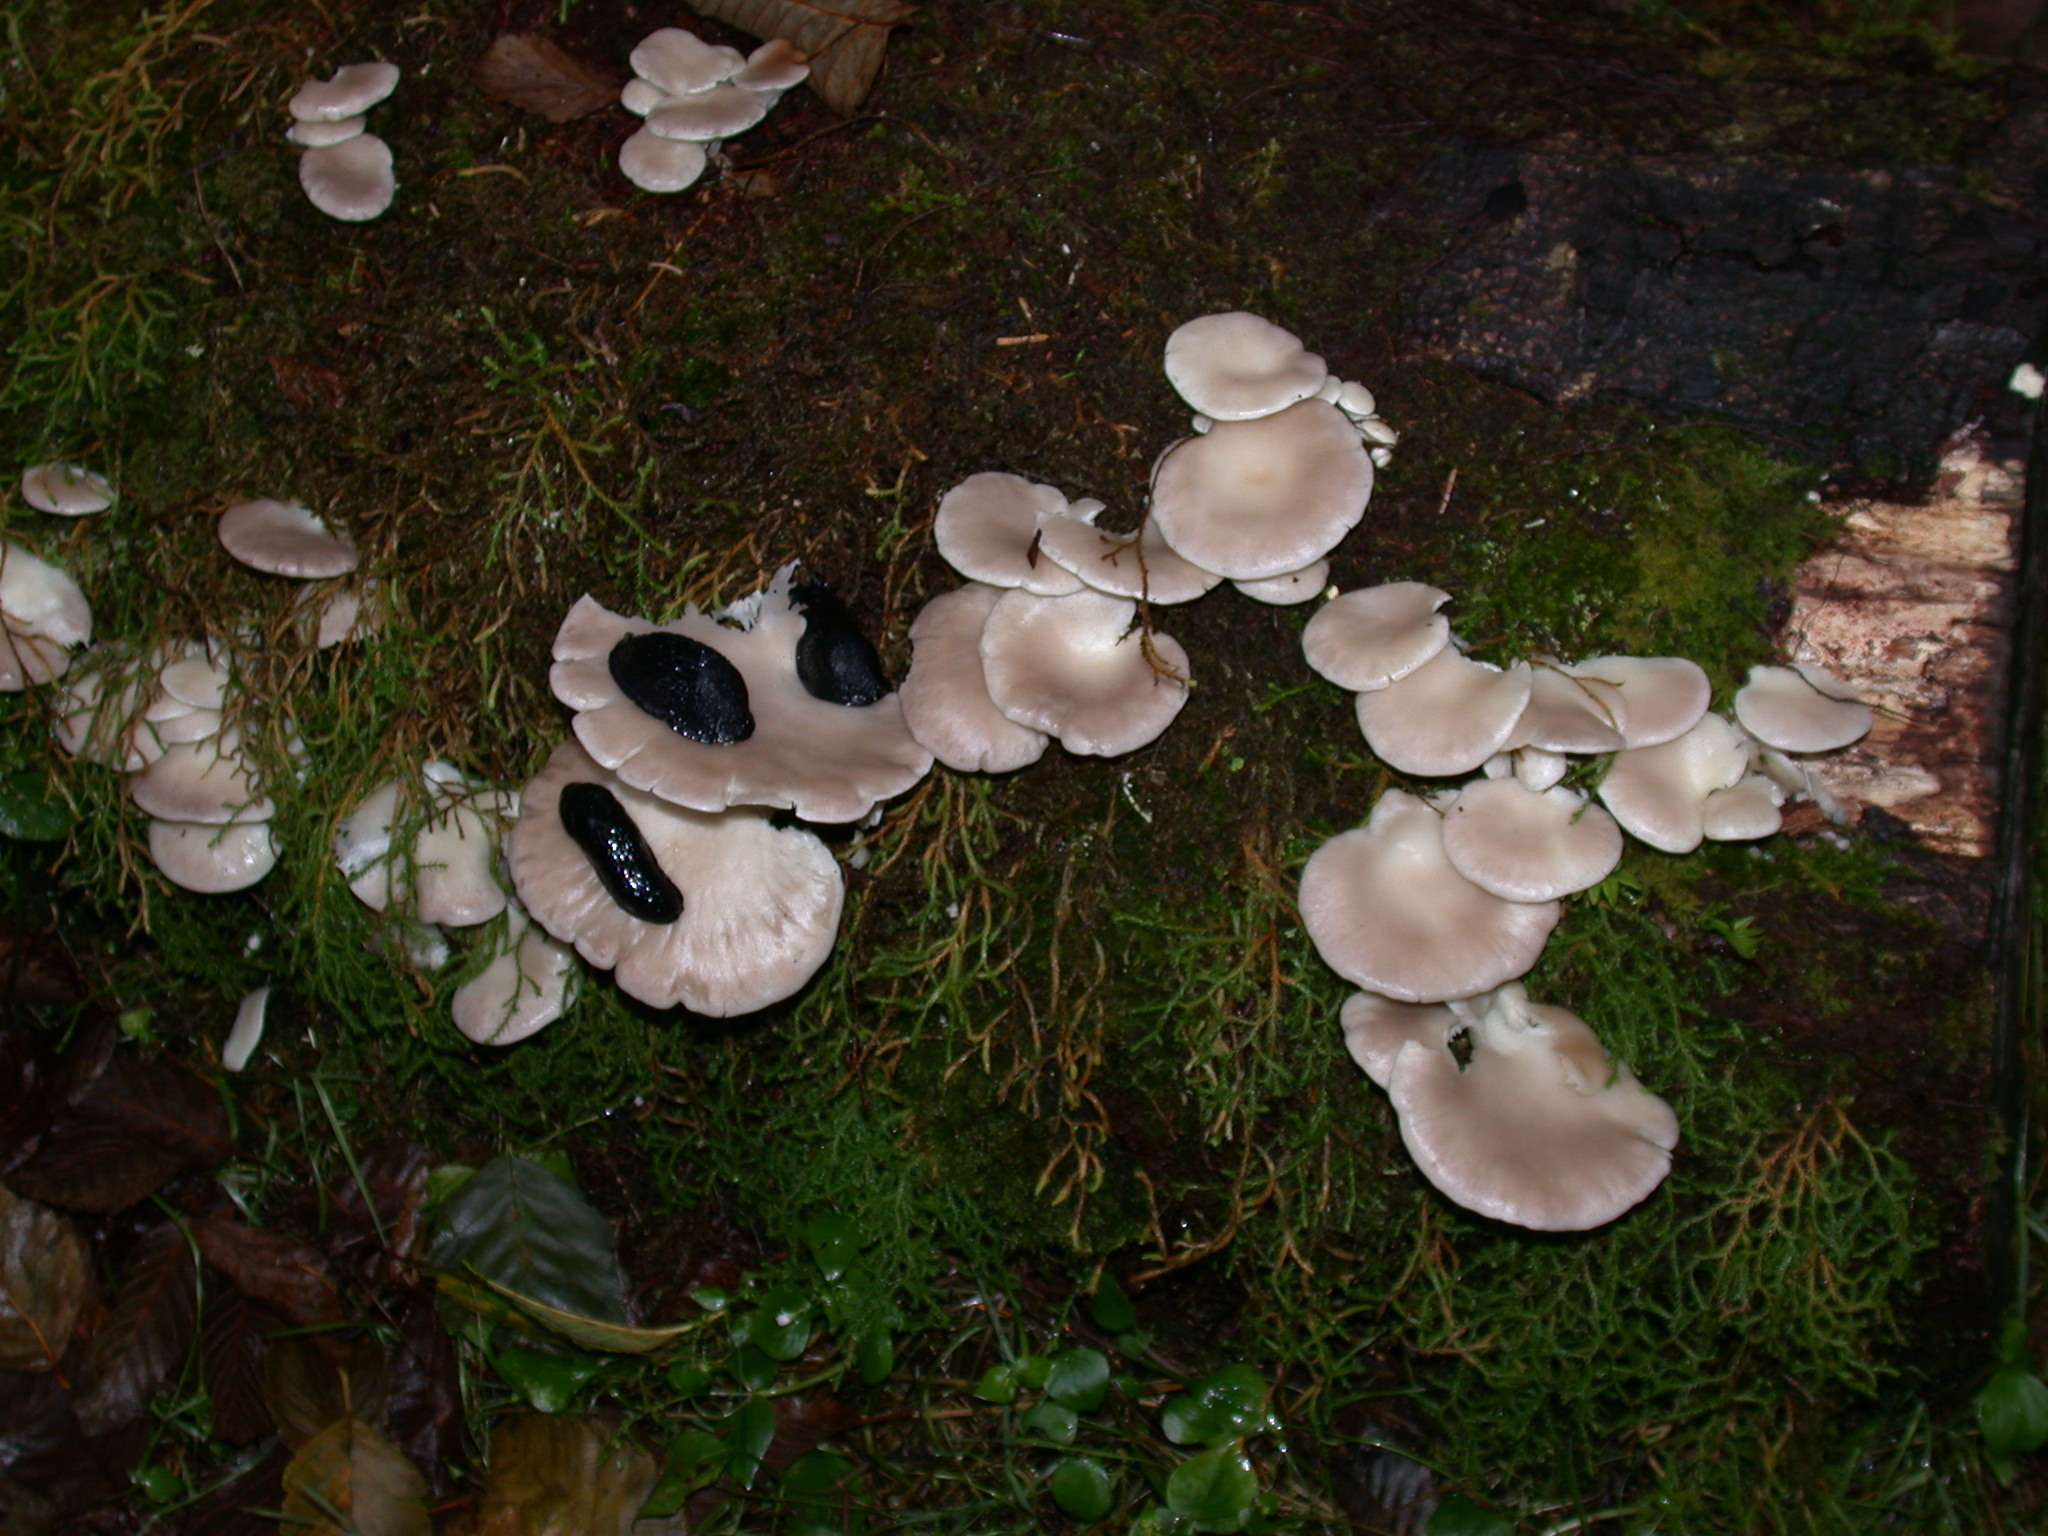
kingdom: Animalia
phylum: Mollusca
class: Gastropoda
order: Stylommatophora
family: Arionidae
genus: Arion
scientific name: Arion
